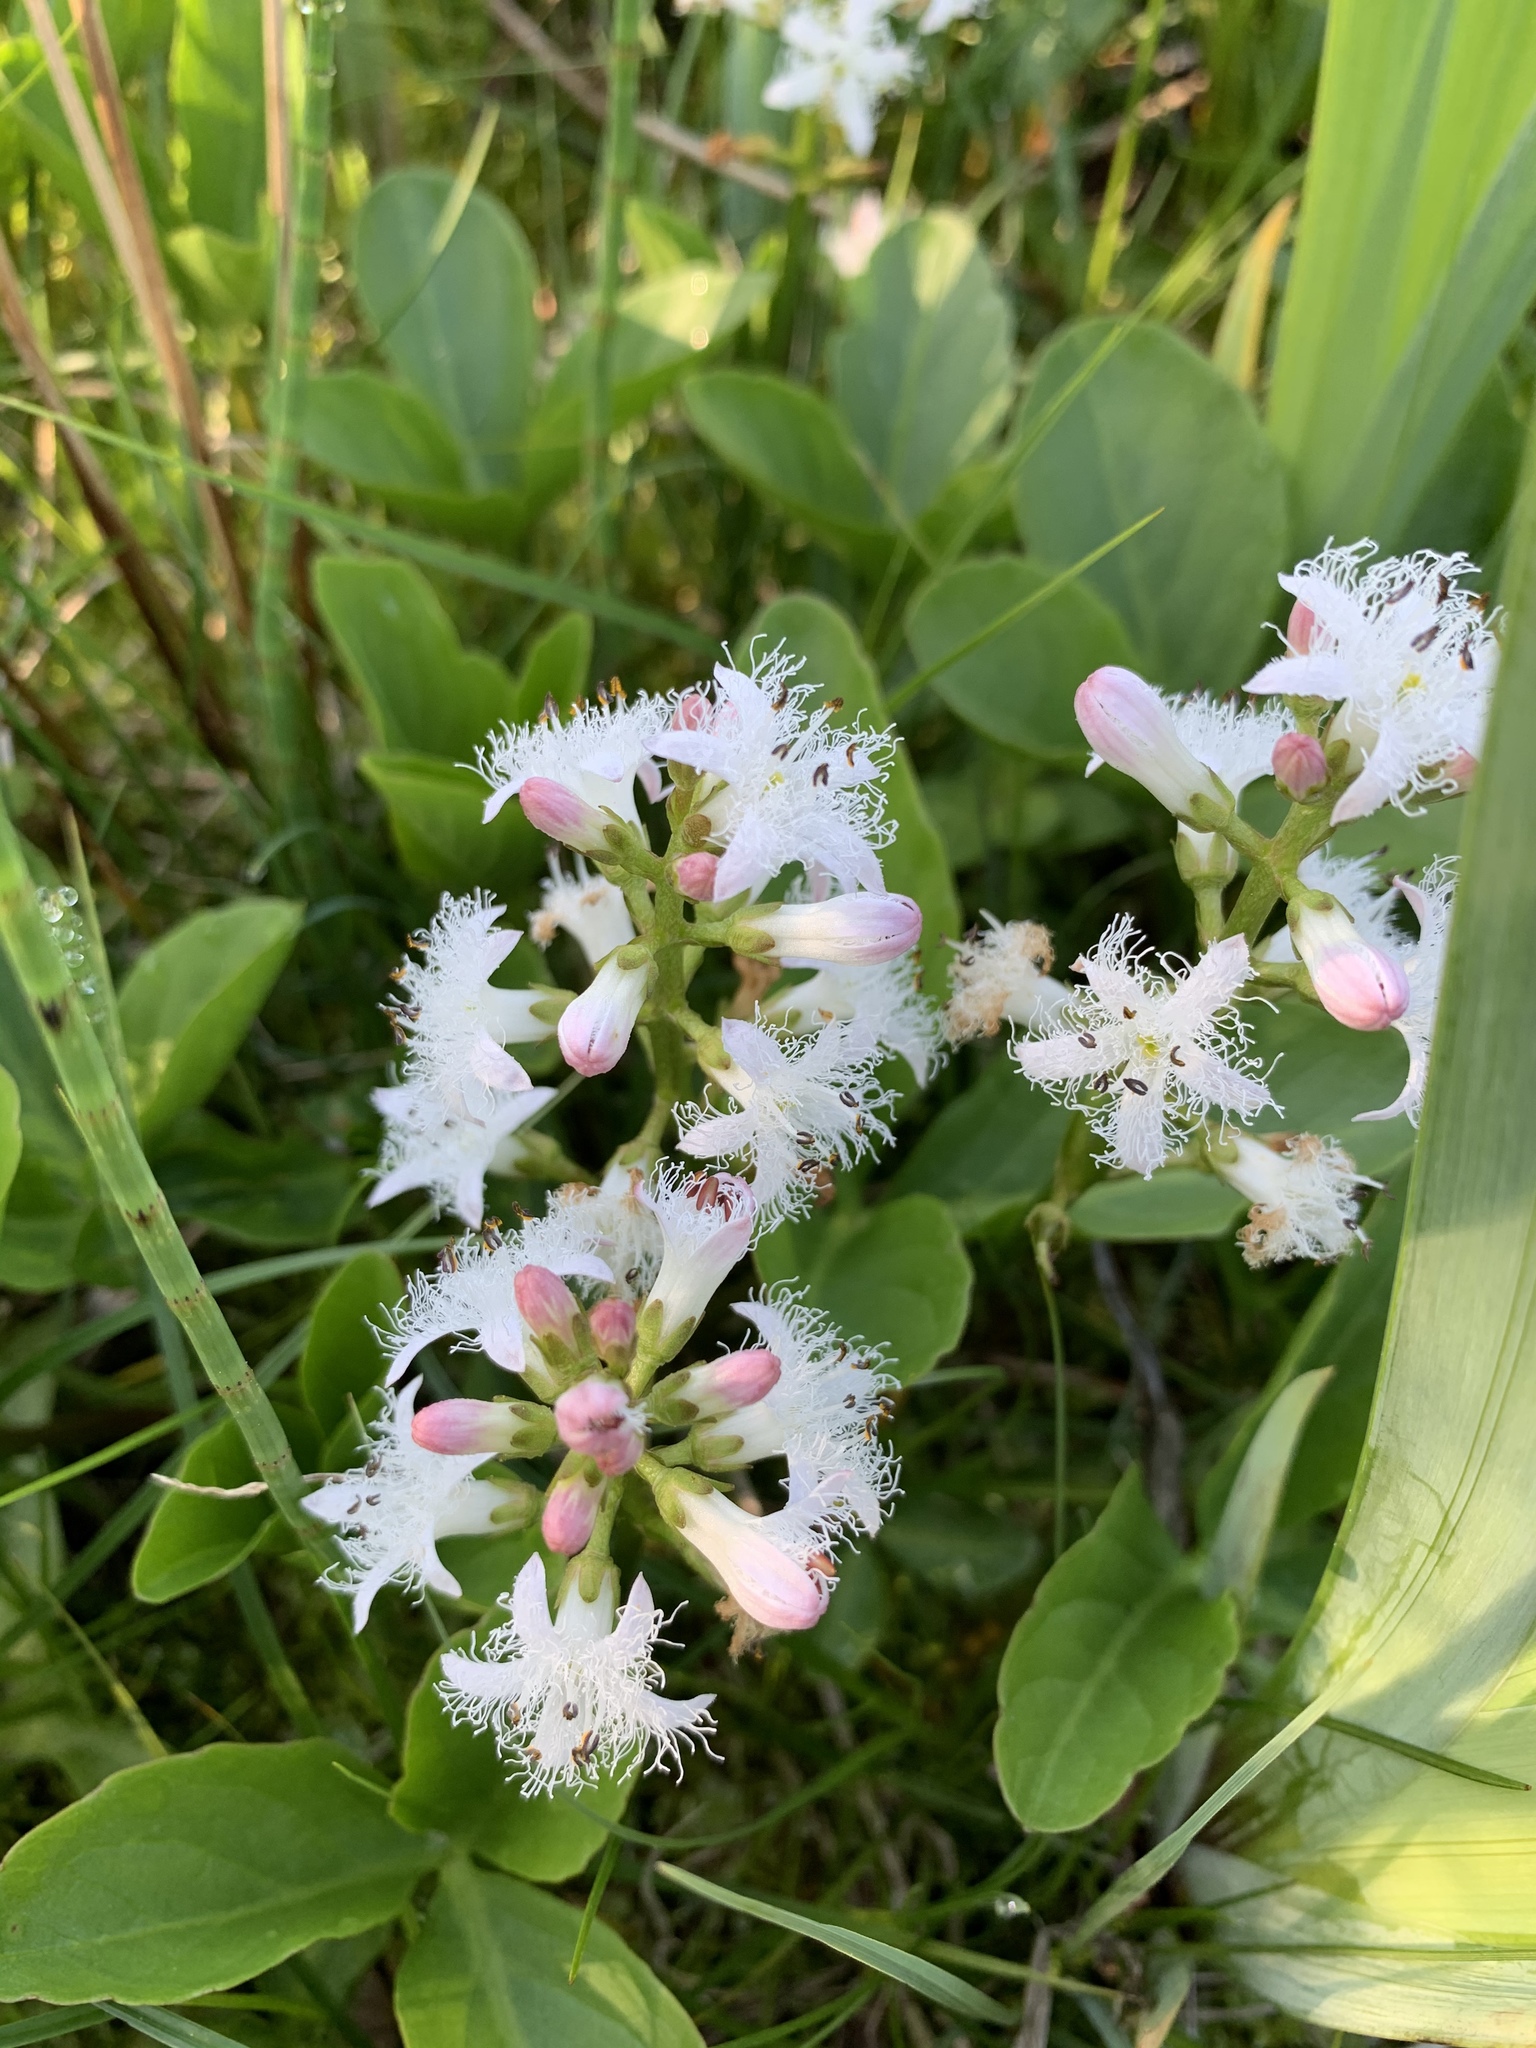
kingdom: Plantae
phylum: Tracheophyta
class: Magnoliopsida
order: Asterales
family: Menyanthaceae
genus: Menyanthes
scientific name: Menyanthes trifoliata
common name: Bogbean
